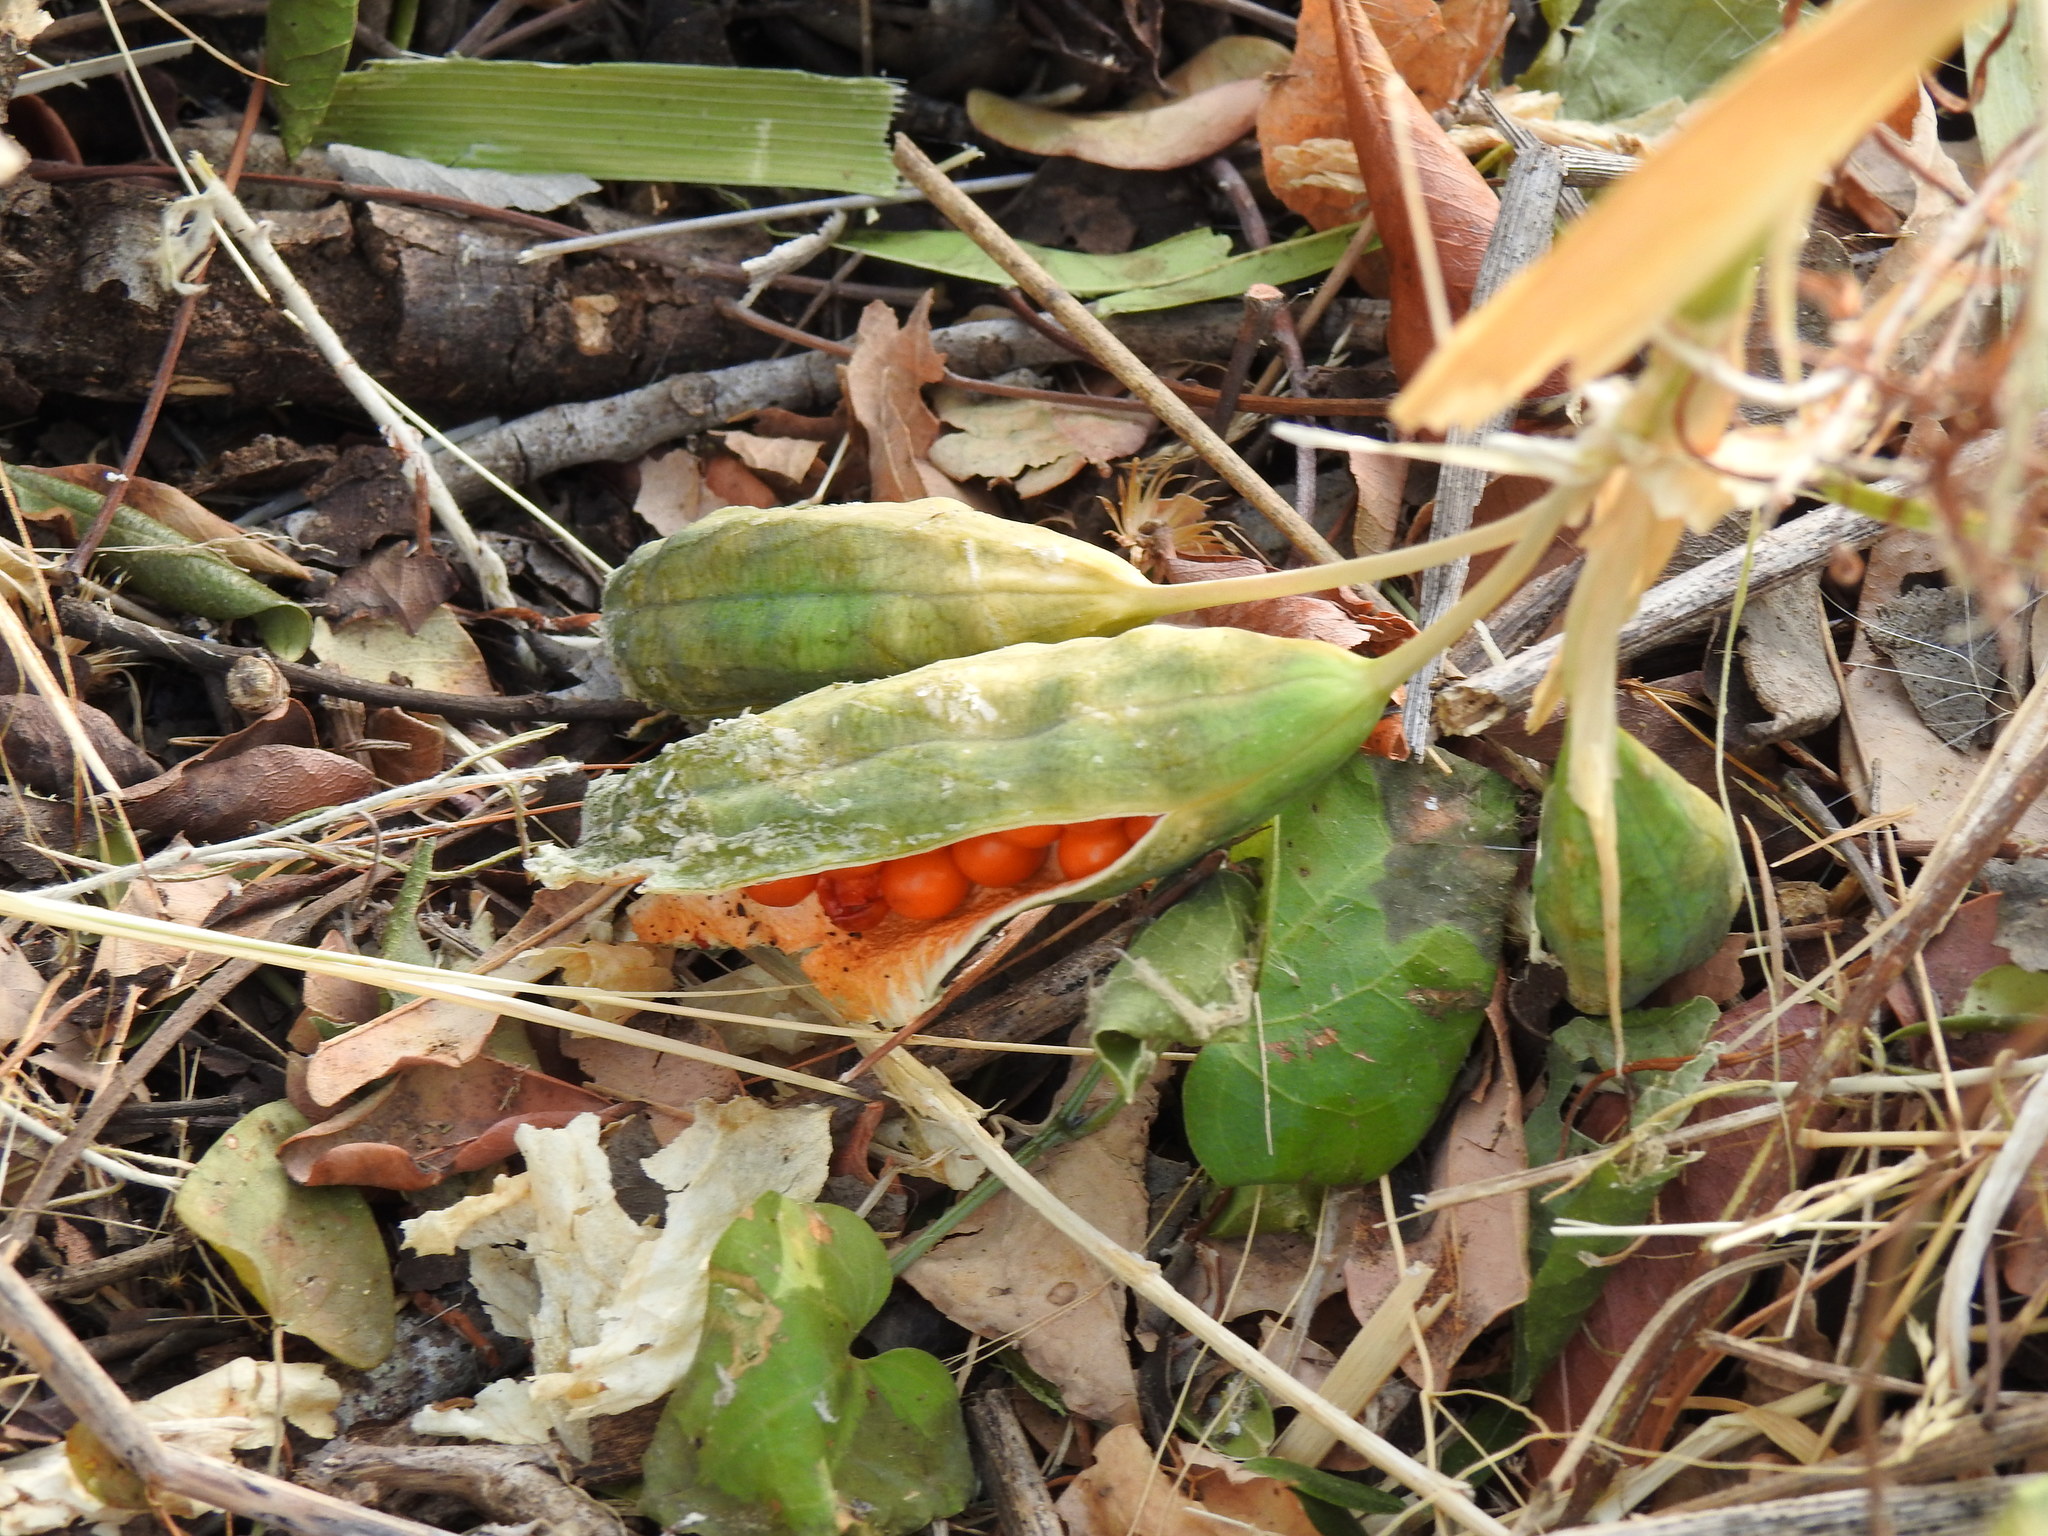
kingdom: Plantae
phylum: Tracheophyta
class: Liliopsida
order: Asparagales
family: Iridaceae
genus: Iris
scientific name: Iris foetidissima
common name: Stinking iris
